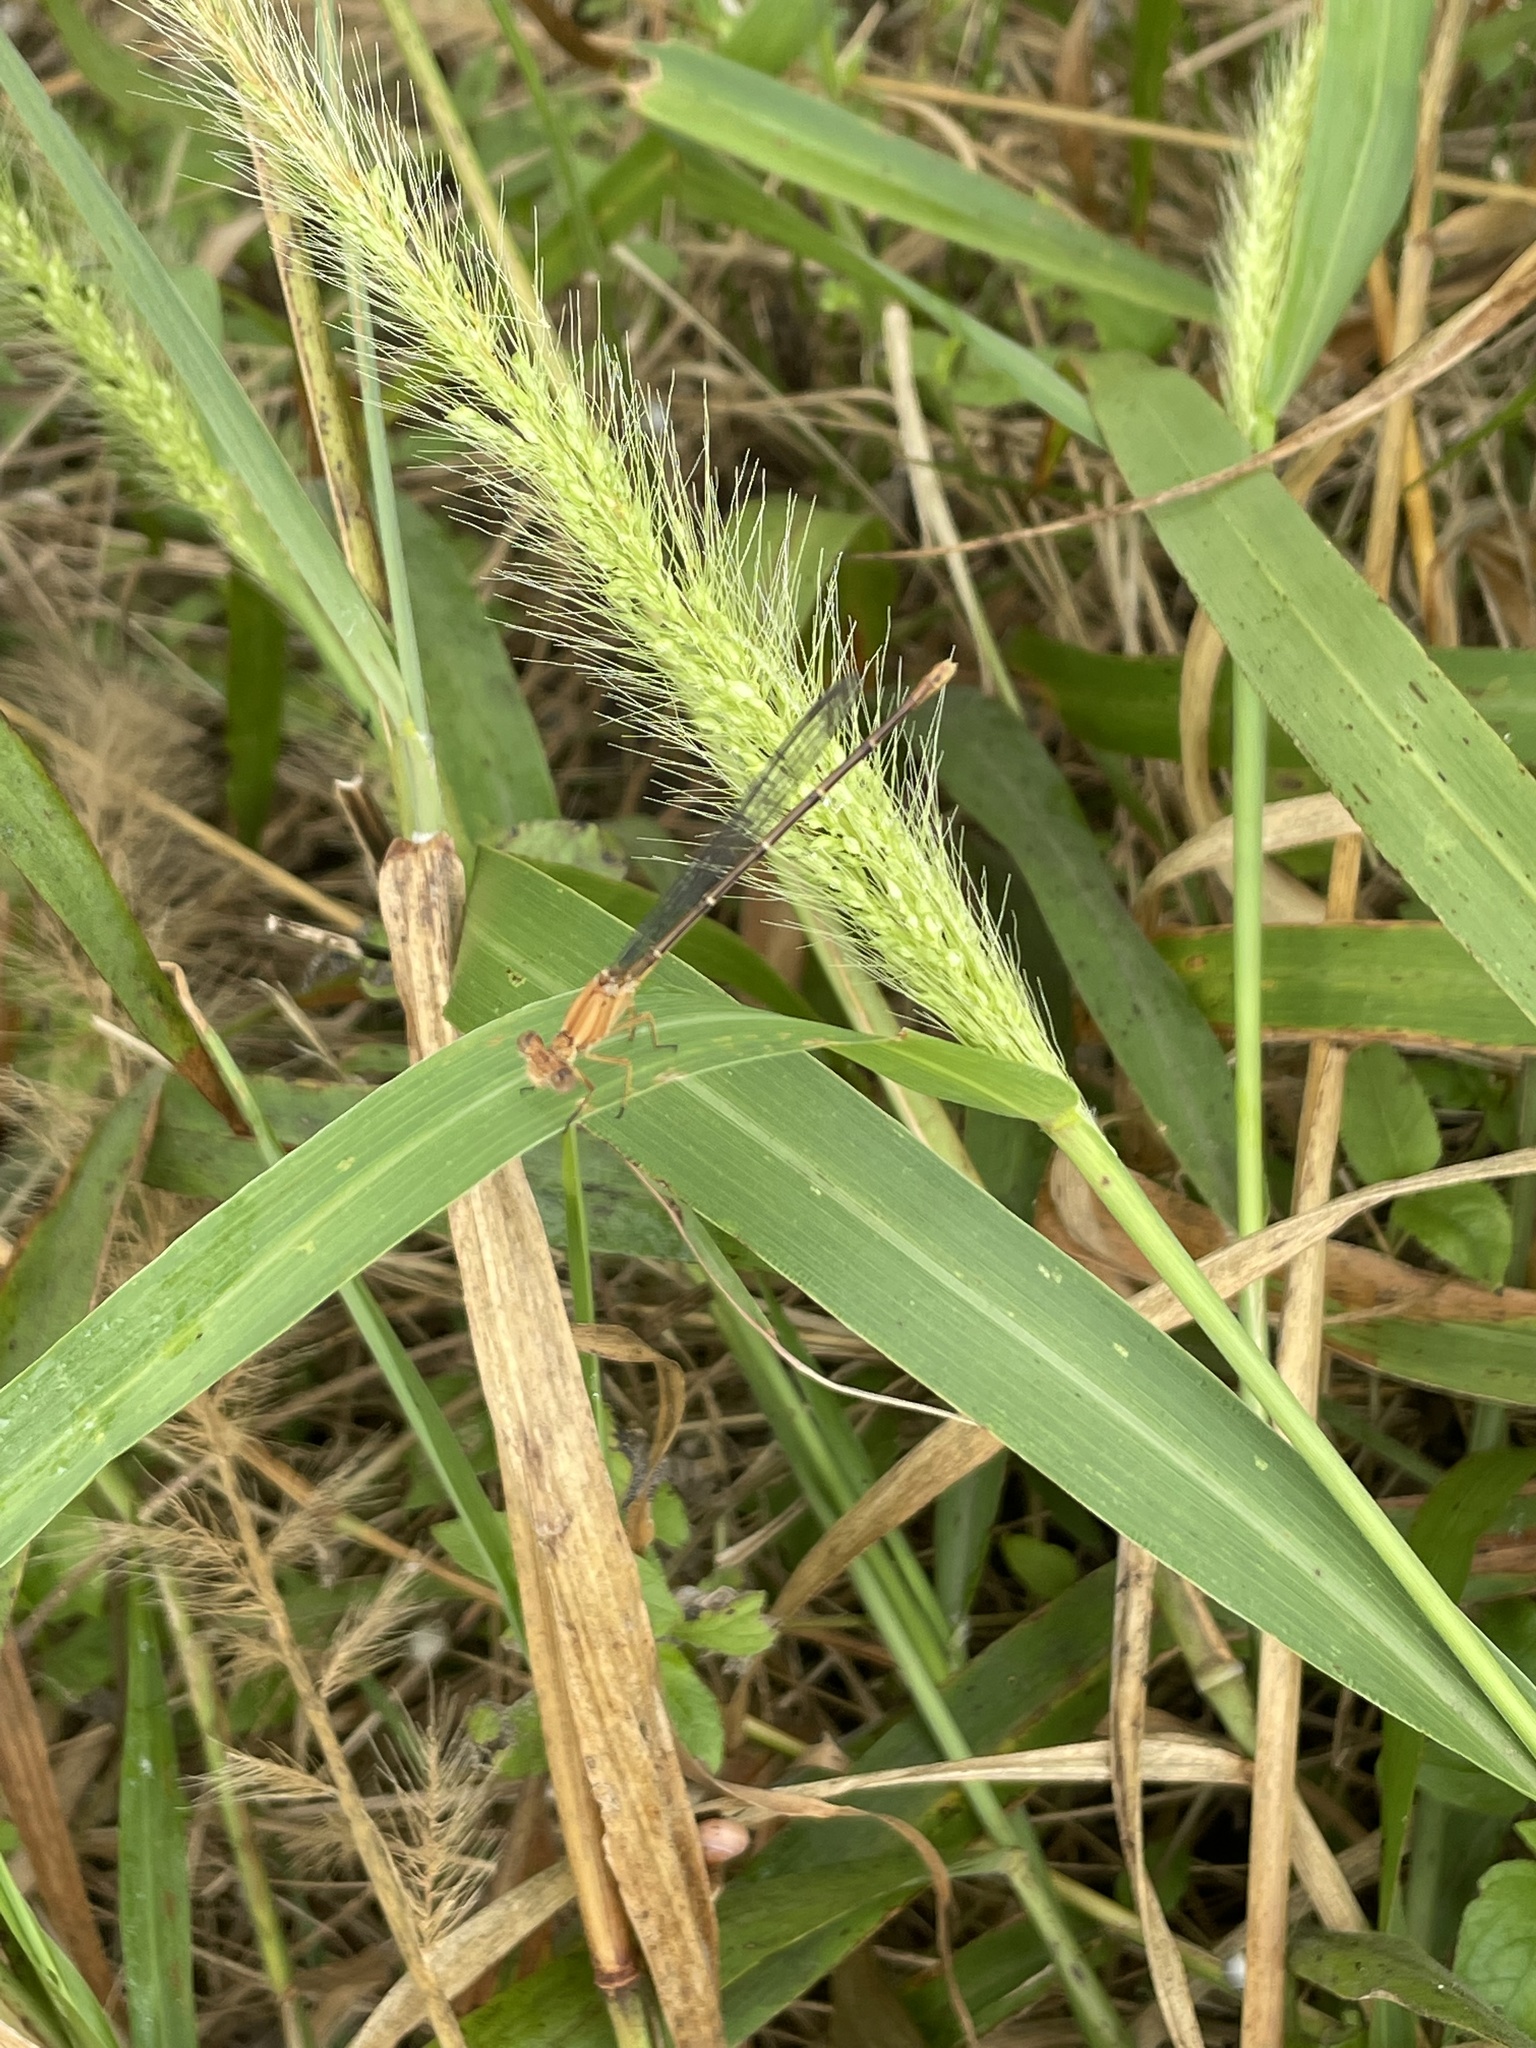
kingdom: Animalia
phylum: Arthropoda
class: Insecta
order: Odonata
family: Coenagrionidae
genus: Argia
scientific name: Argia moesta
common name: Powdered dancer
